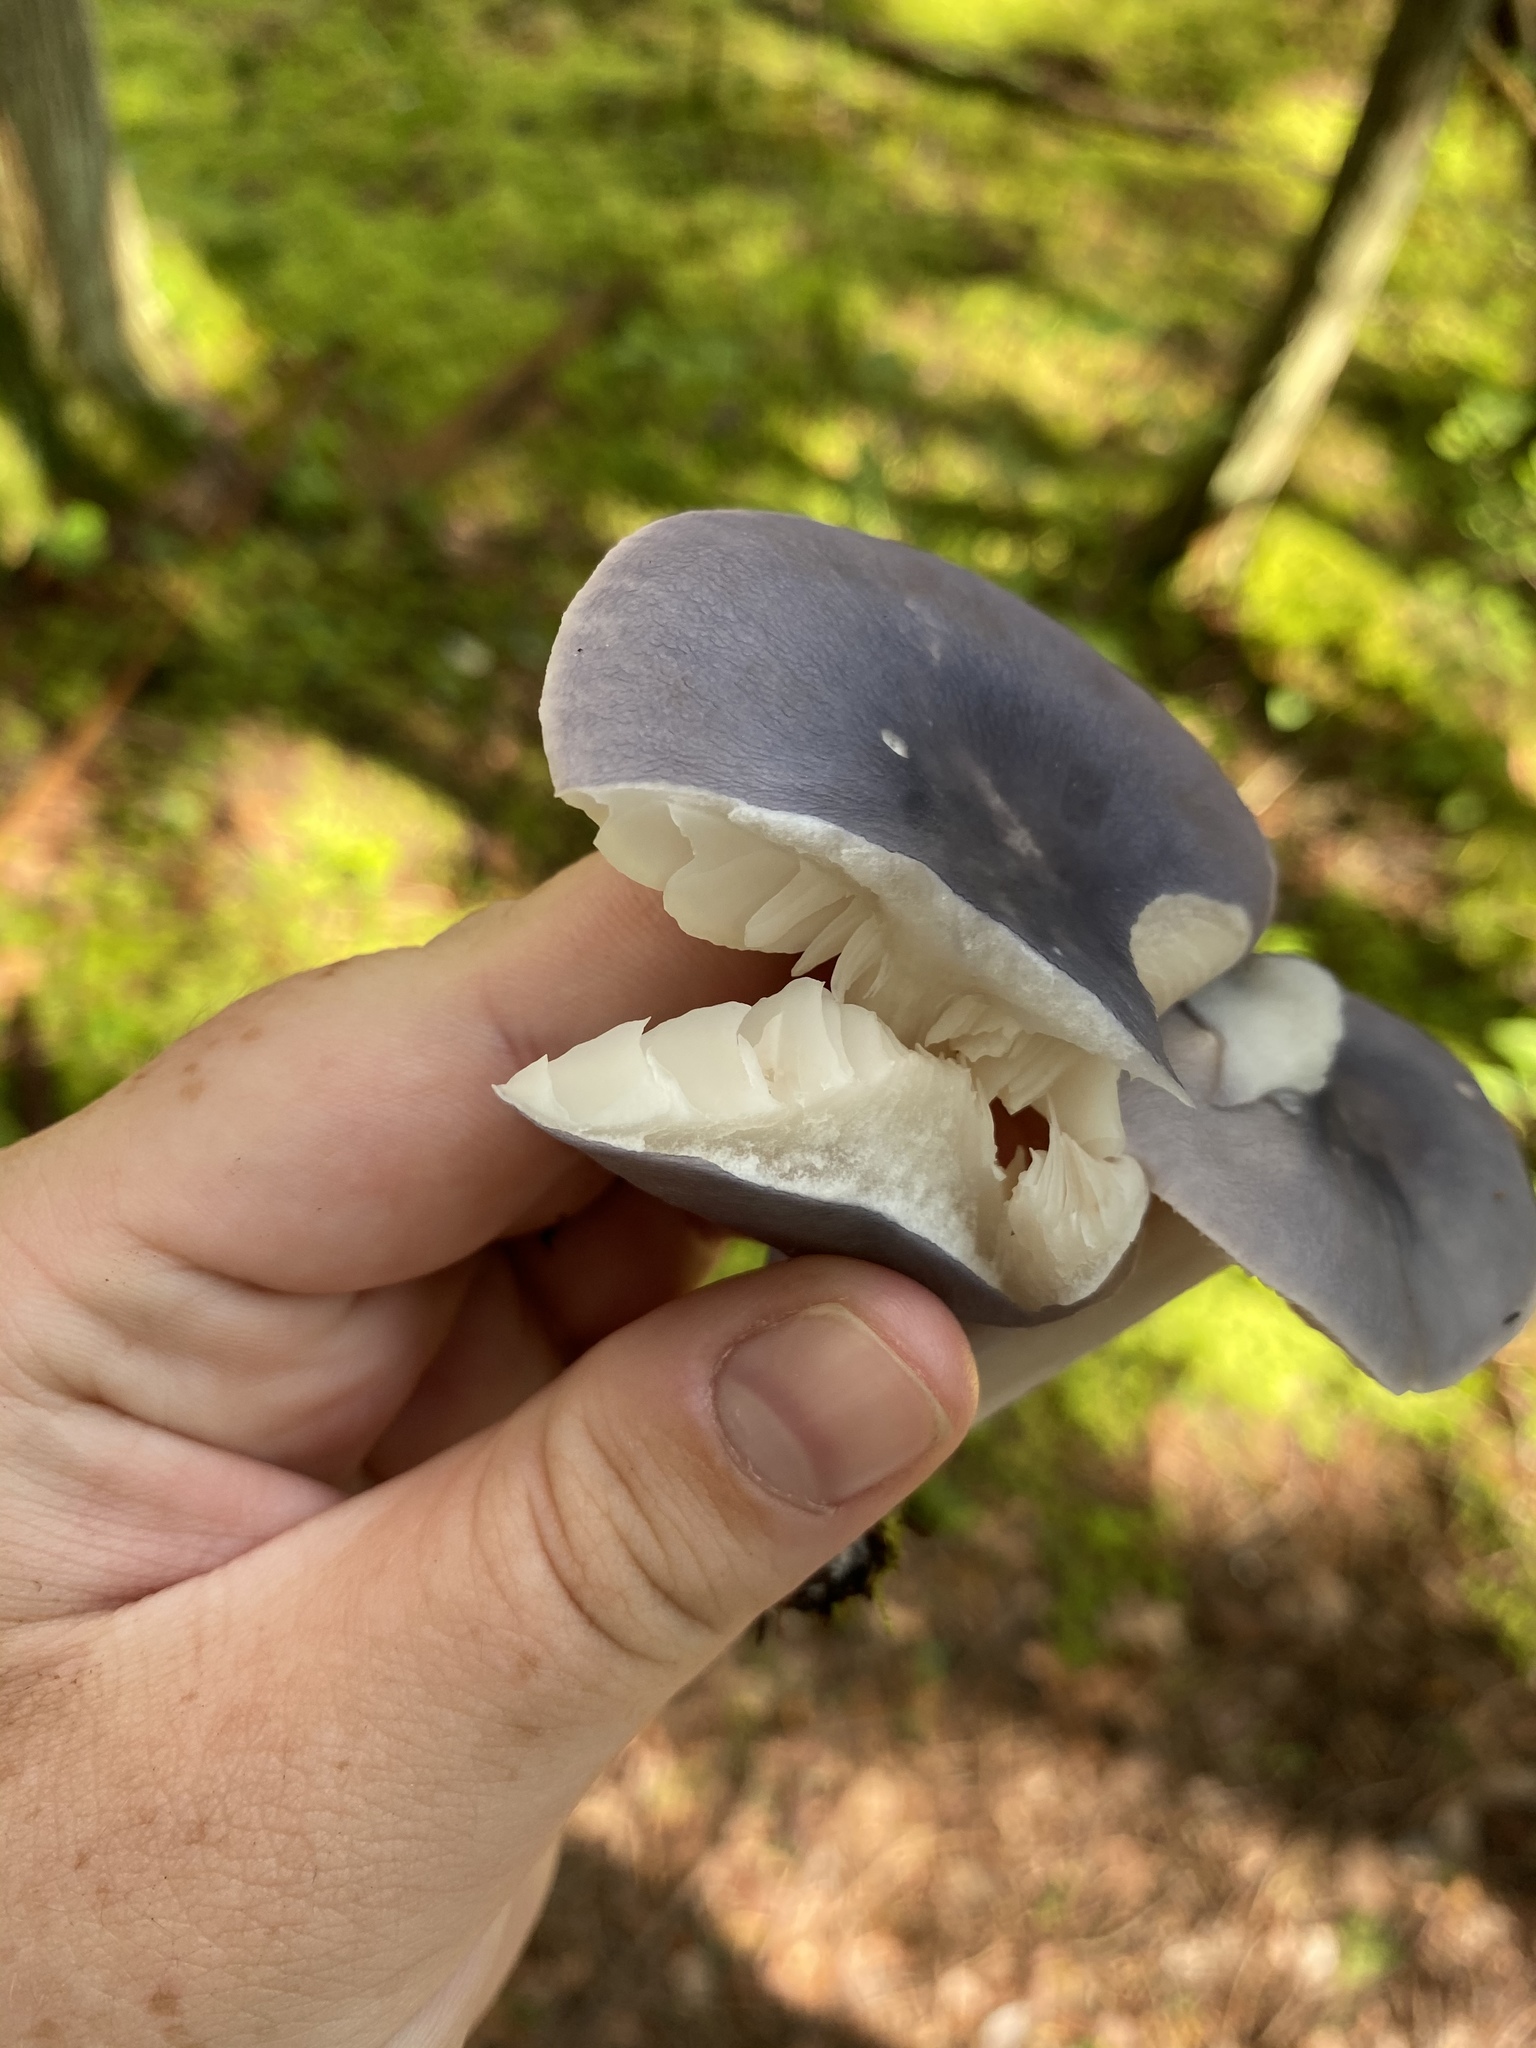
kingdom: Fungi
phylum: Basidiomycota
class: Agaricomycetes
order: Agaricales
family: Entolomataceae
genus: Entoloma
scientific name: Entoloma indigoferum
